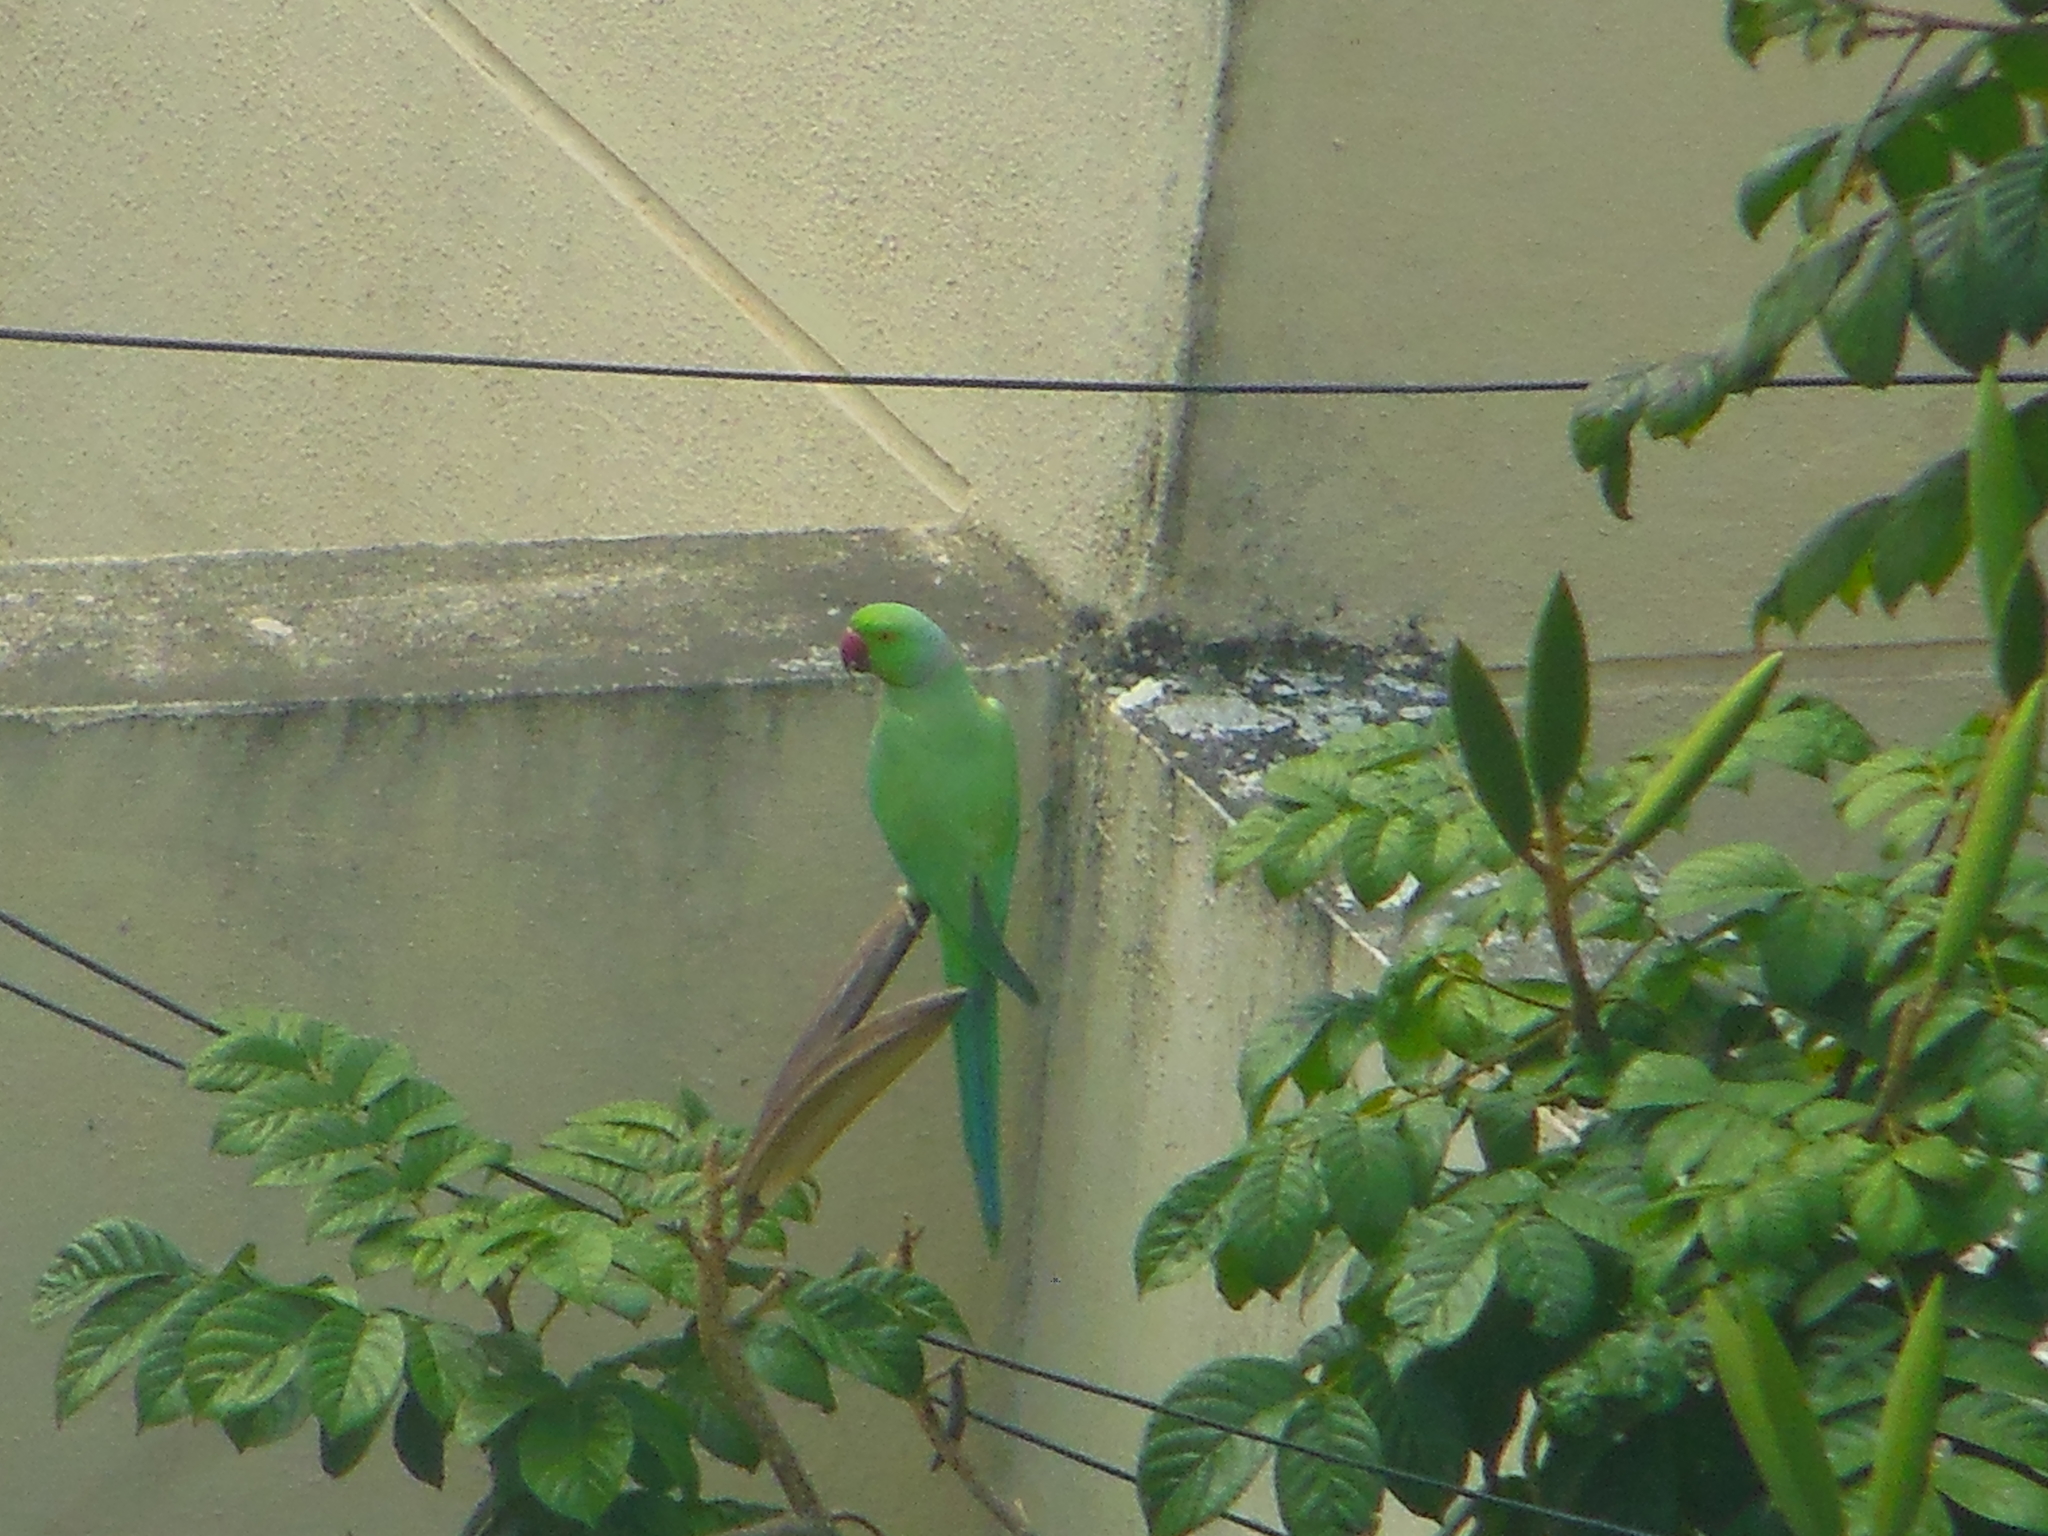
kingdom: Animalia
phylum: Chordata
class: Aves
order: Psittaciformes
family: Psittacidae
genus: Psittacula
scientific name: Psittacula krameri
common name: Rose-ringed parakeet
